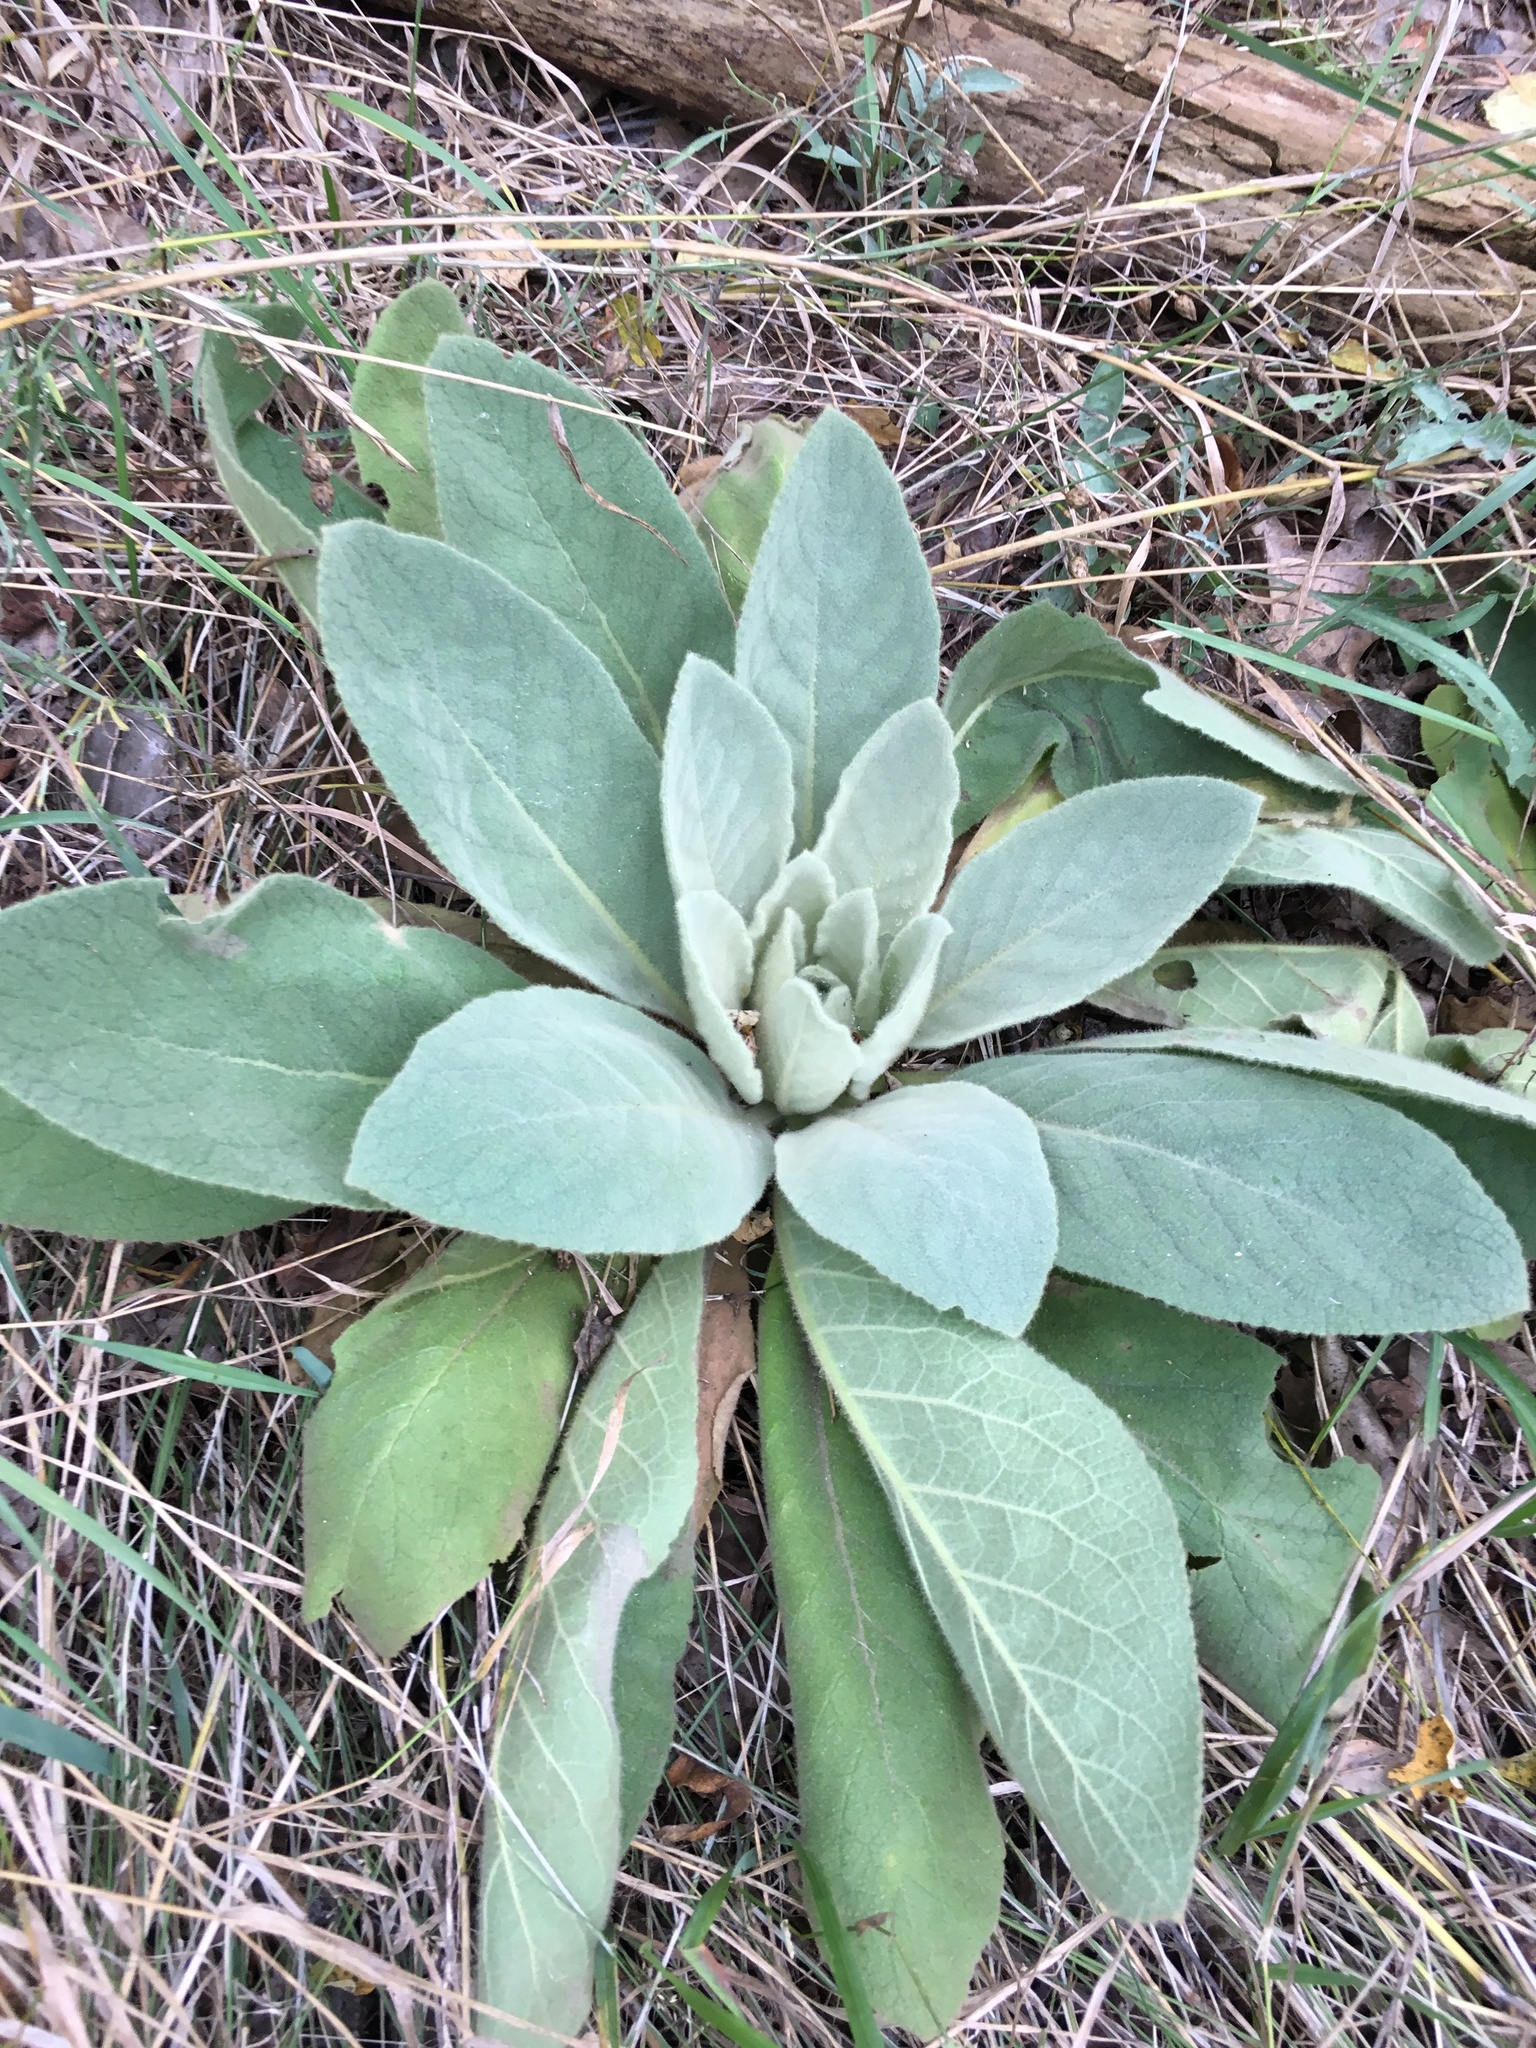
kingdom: Plantae
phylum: Tracheophyta
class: Magnoliopsida
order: Lamiales
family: Scrophulariaceae
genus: Verbascum
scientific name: Verbascum thapsus
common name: Common mullein
